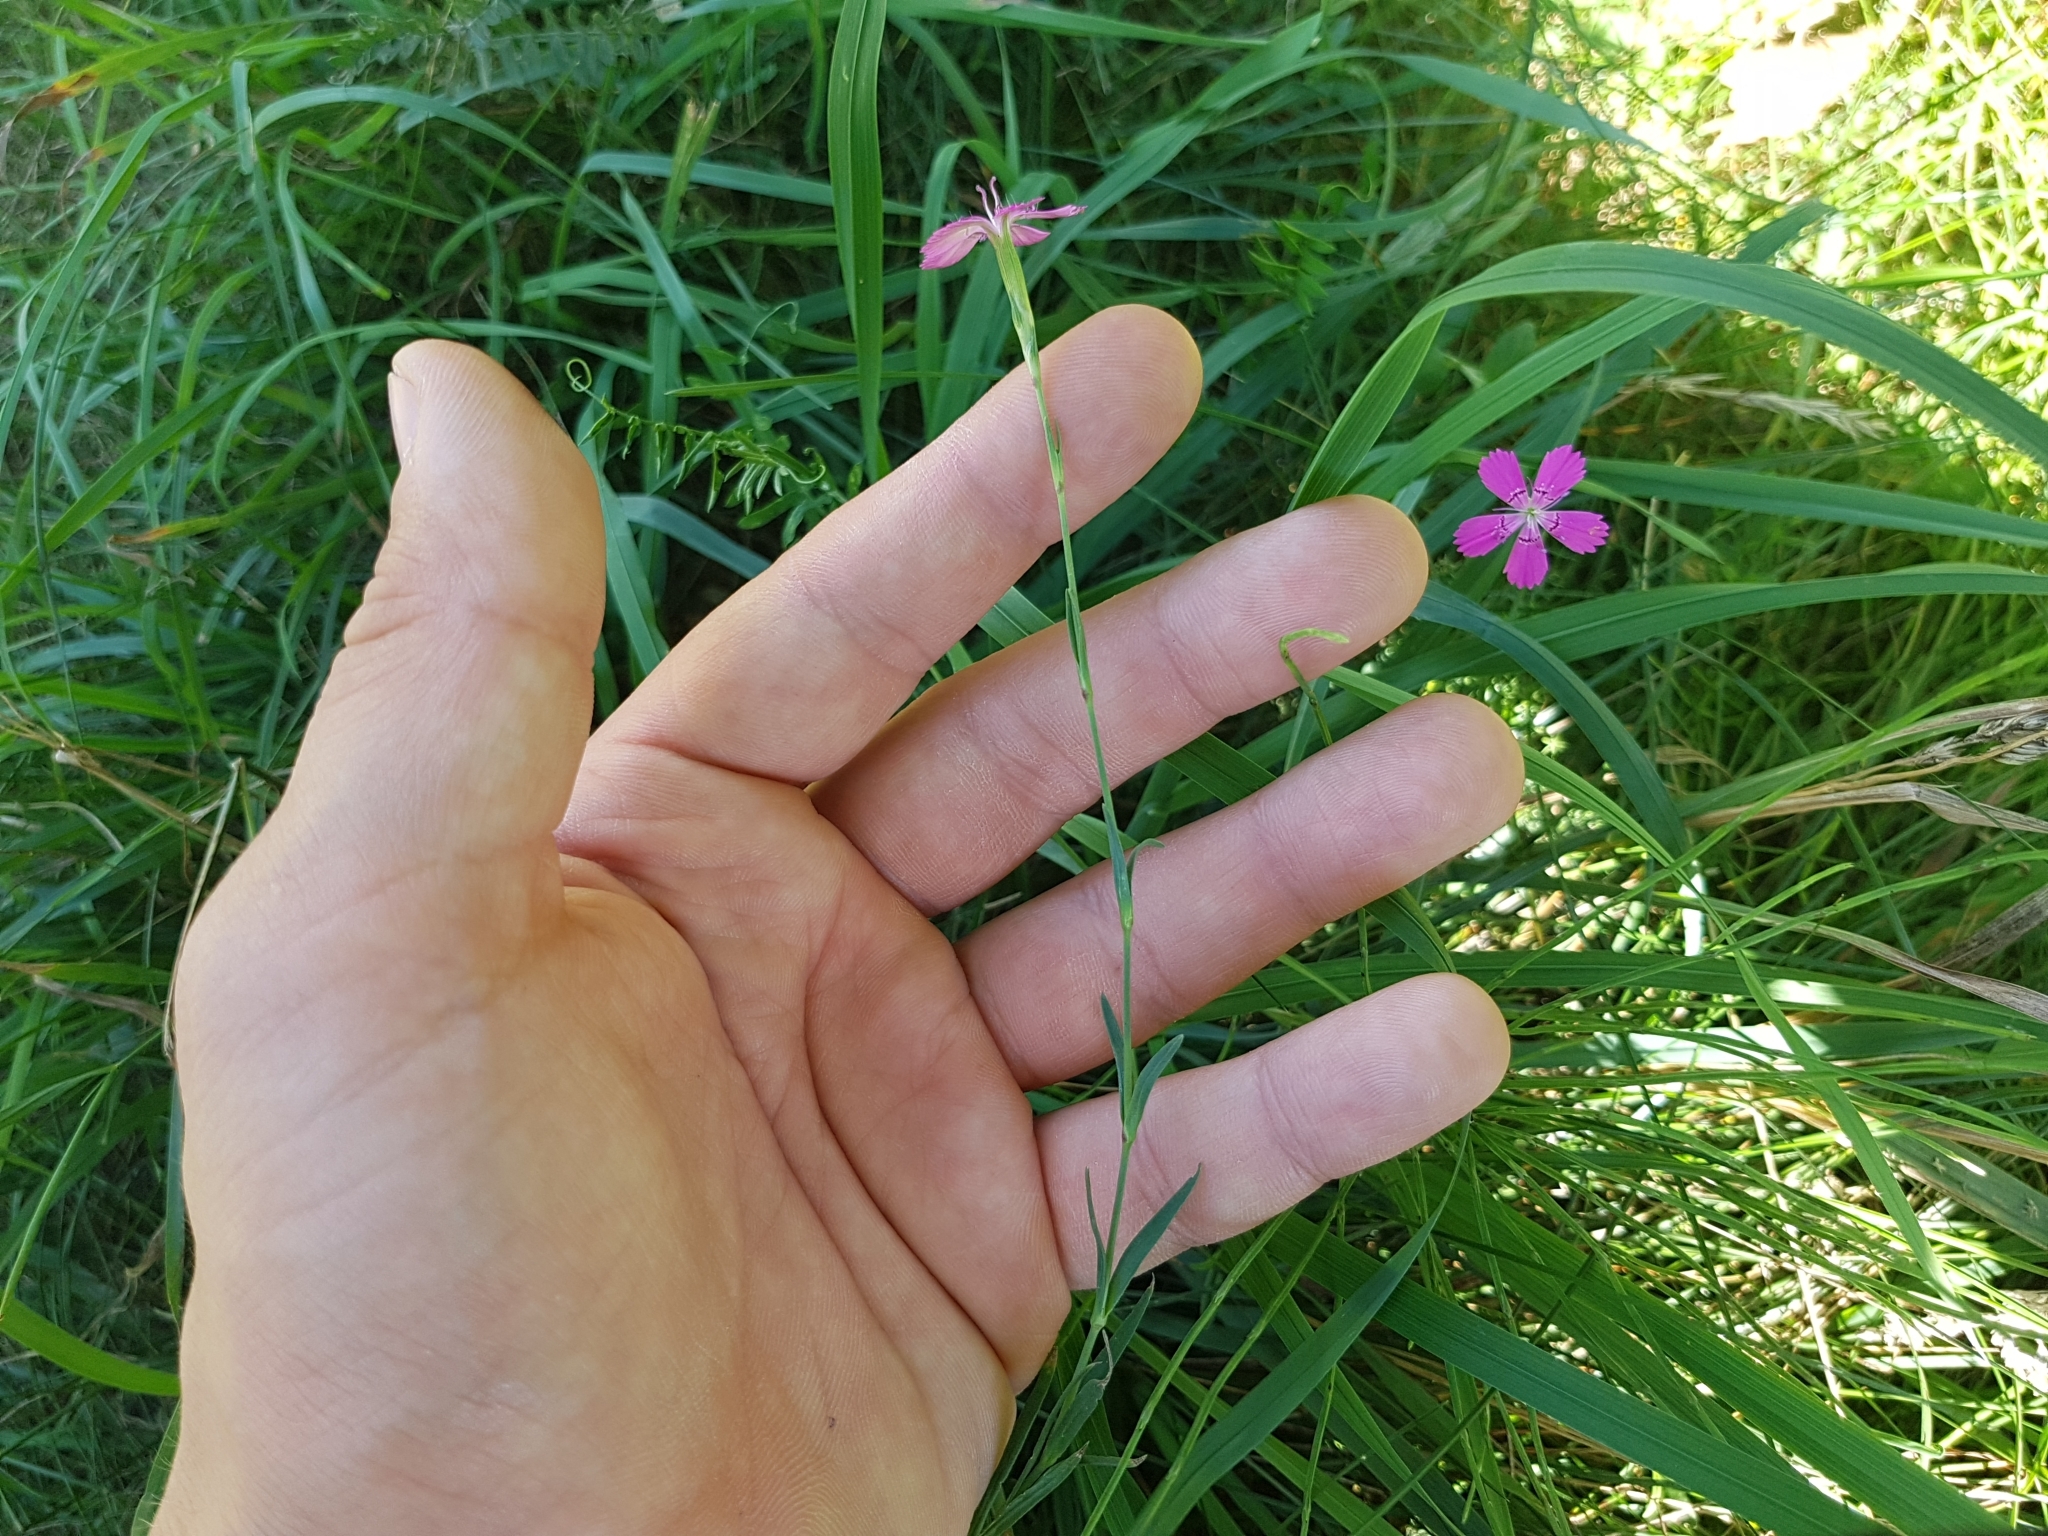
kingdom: Plantae
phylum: Tracheophyta
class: Magnoliopsida
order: Caryophyllales
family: Caryophyllaceae
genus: Dianthus
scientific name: Dianthus deltoides
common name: Maiden pink
